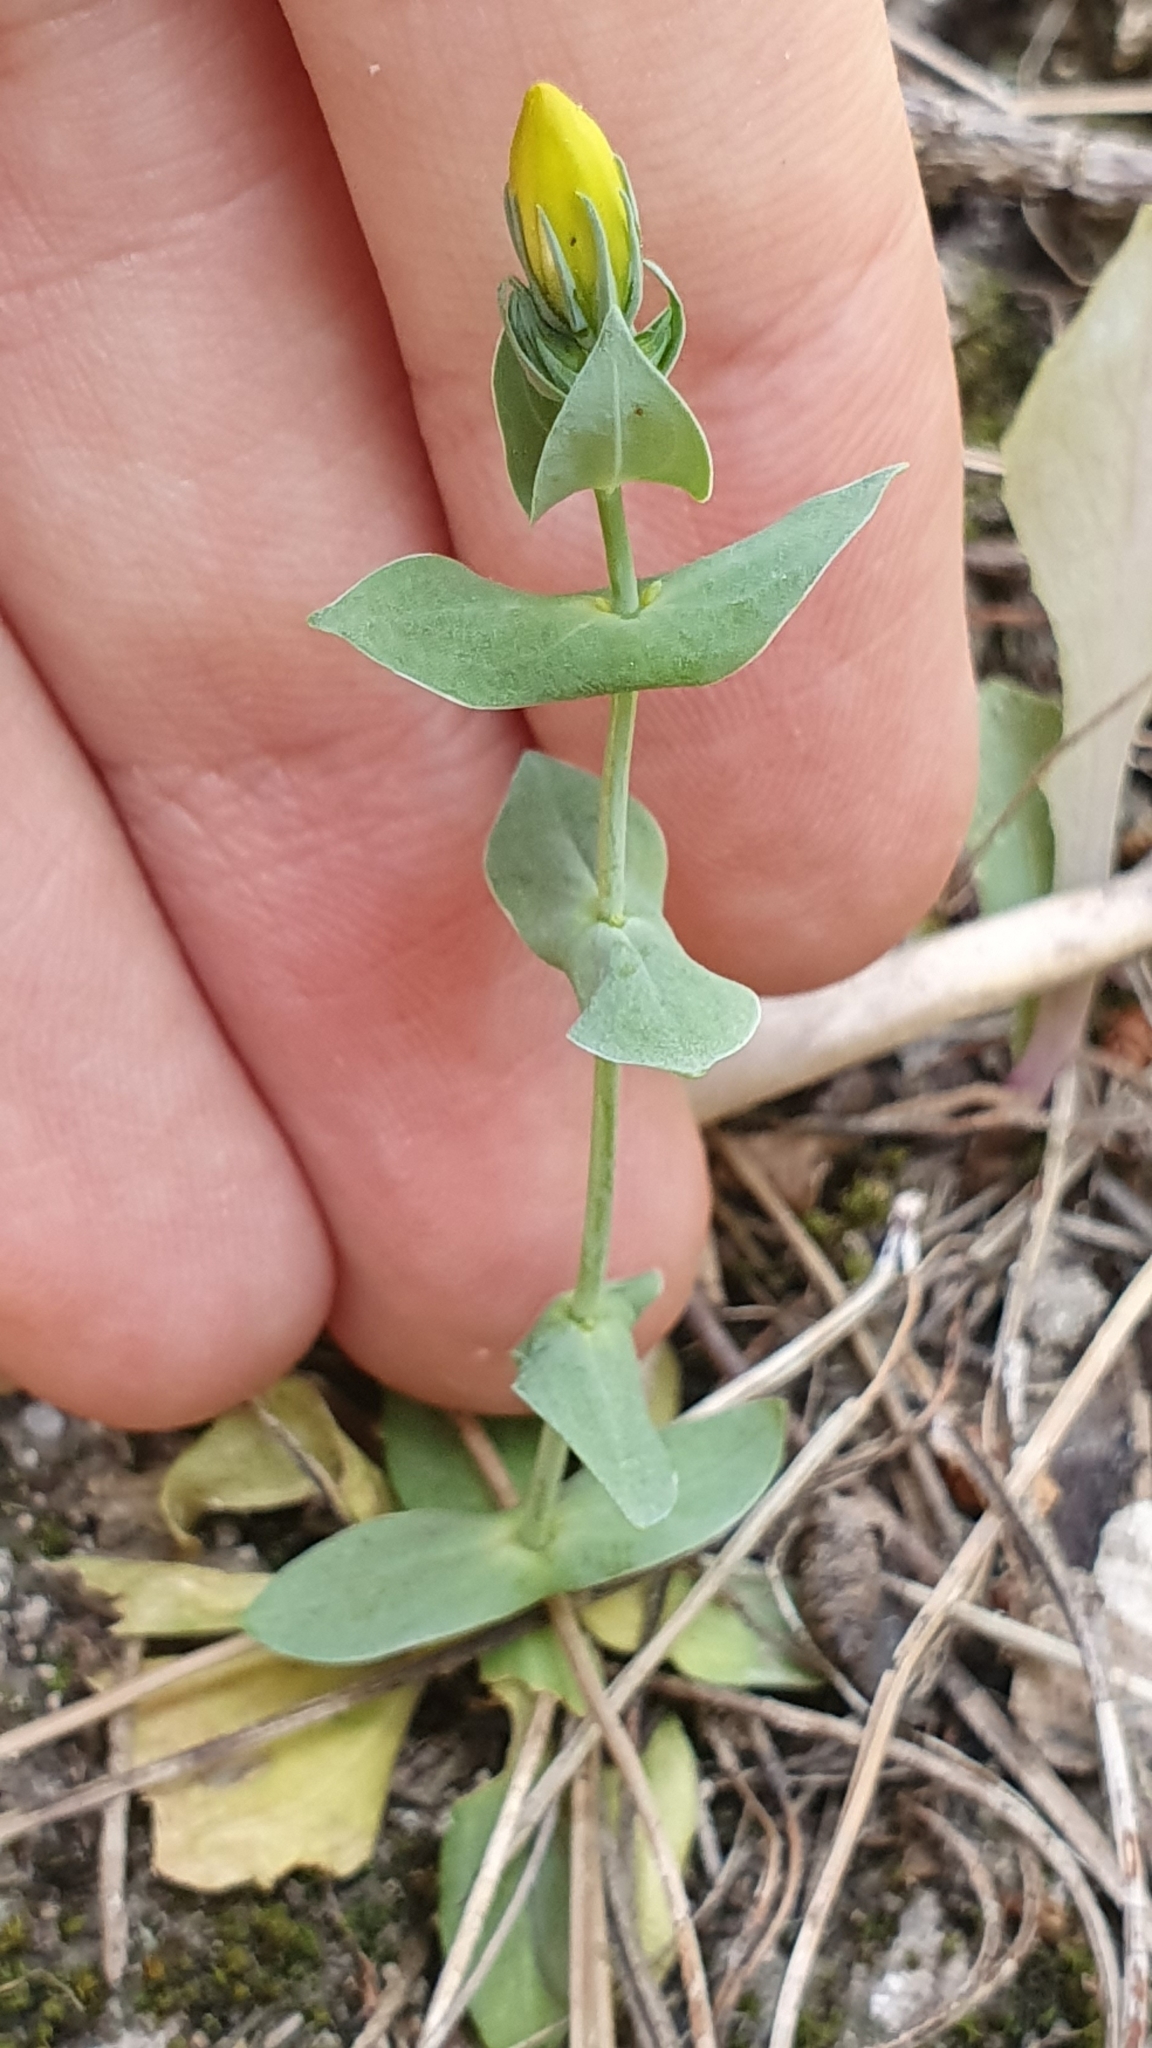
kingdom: Plantae
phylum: Tracheophyta
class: Magnoliopsida
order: Gentianales
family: Gentianaceae
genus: Blackstonia
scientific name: Blackstonia grandiflora
